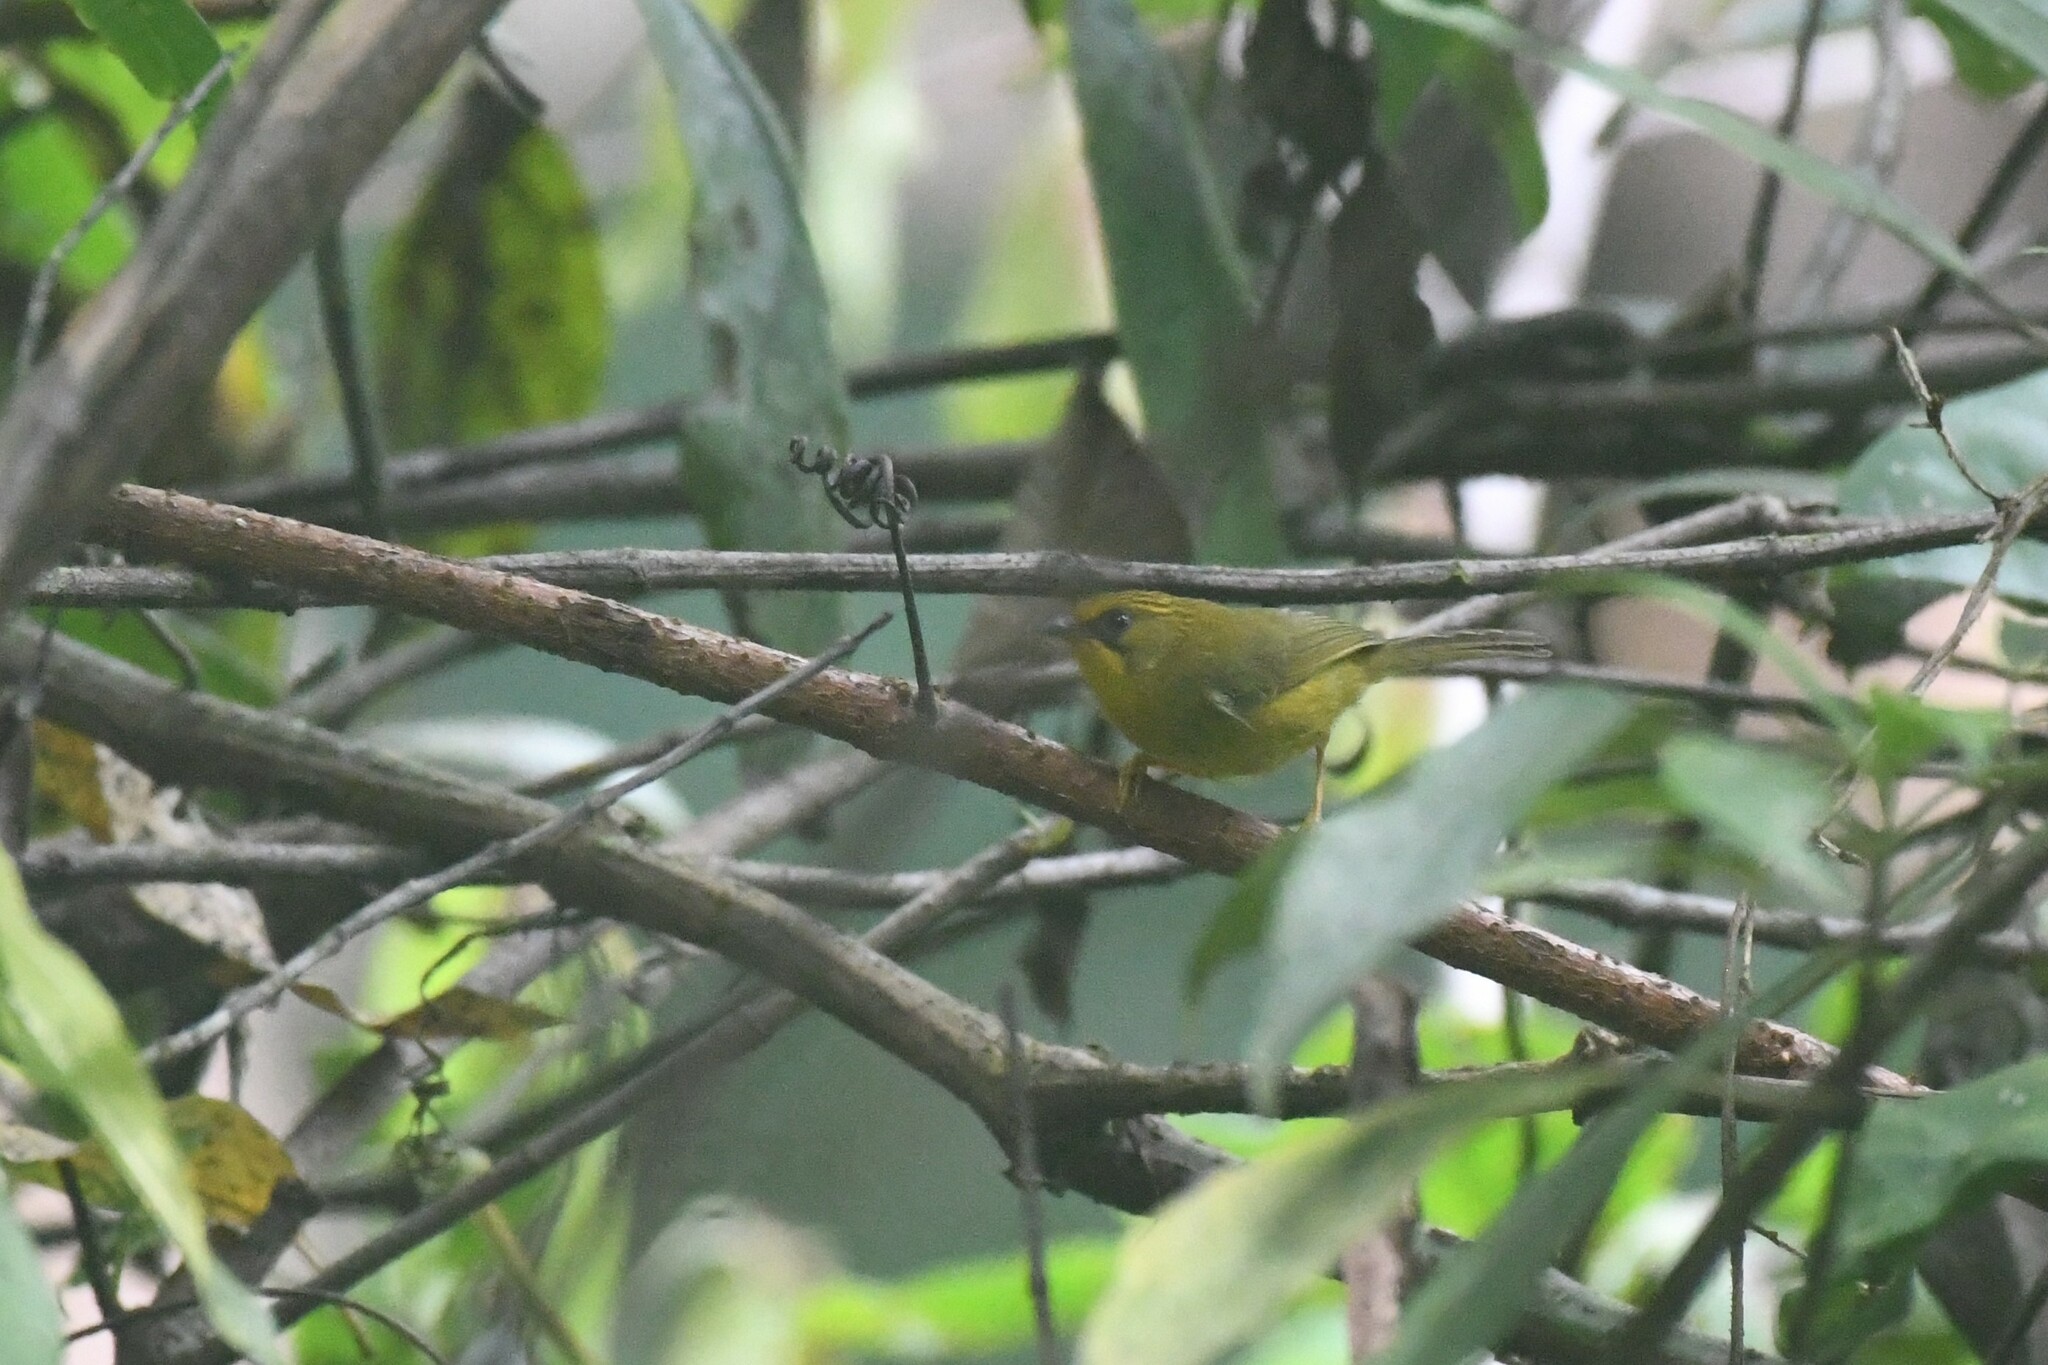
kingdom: Animalia
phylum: Chordata
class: Aves
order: Passeriformes
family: Timaliidae
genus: Stachyridopsis
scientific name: Stachyridopsis chrysaea
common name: Golden babbler
